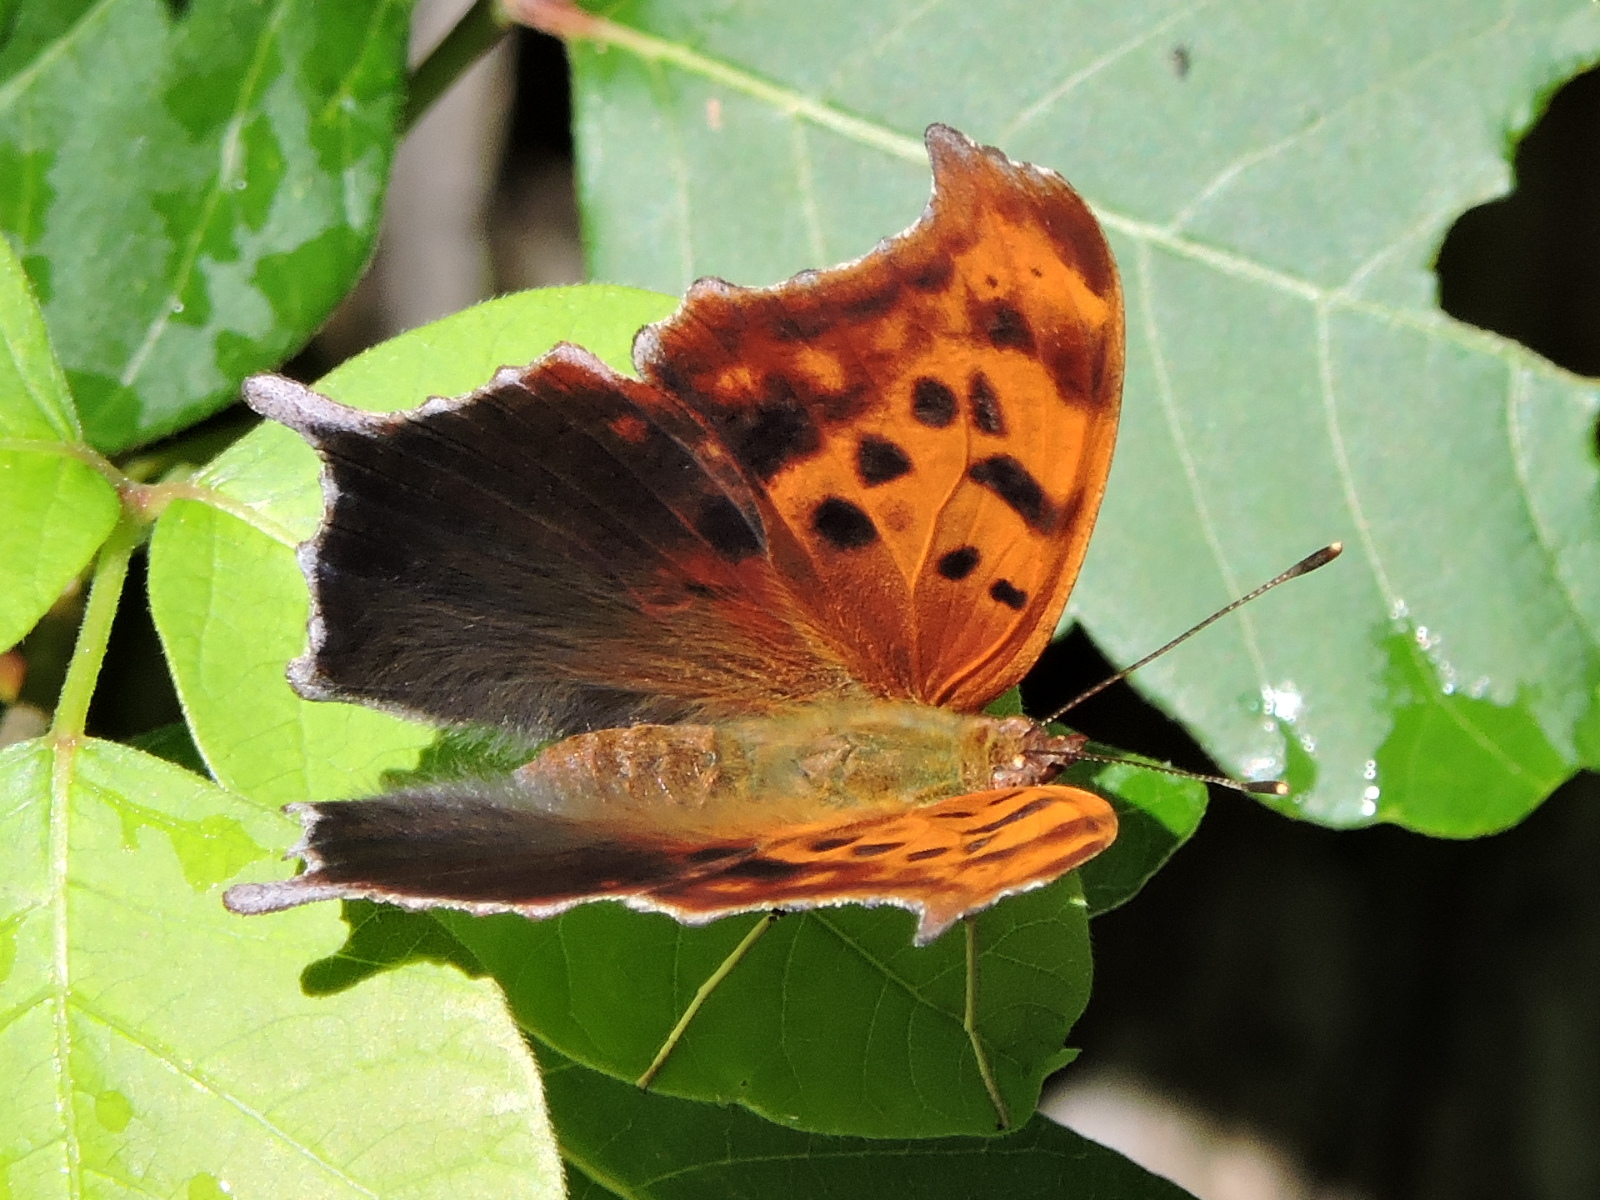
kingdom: Animalia
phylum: Arthropoda
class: Insecta
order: Lepidoptera
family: Nymphalidae
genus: Polygonia
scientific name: Polygonia interrogationis
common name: Question mark
